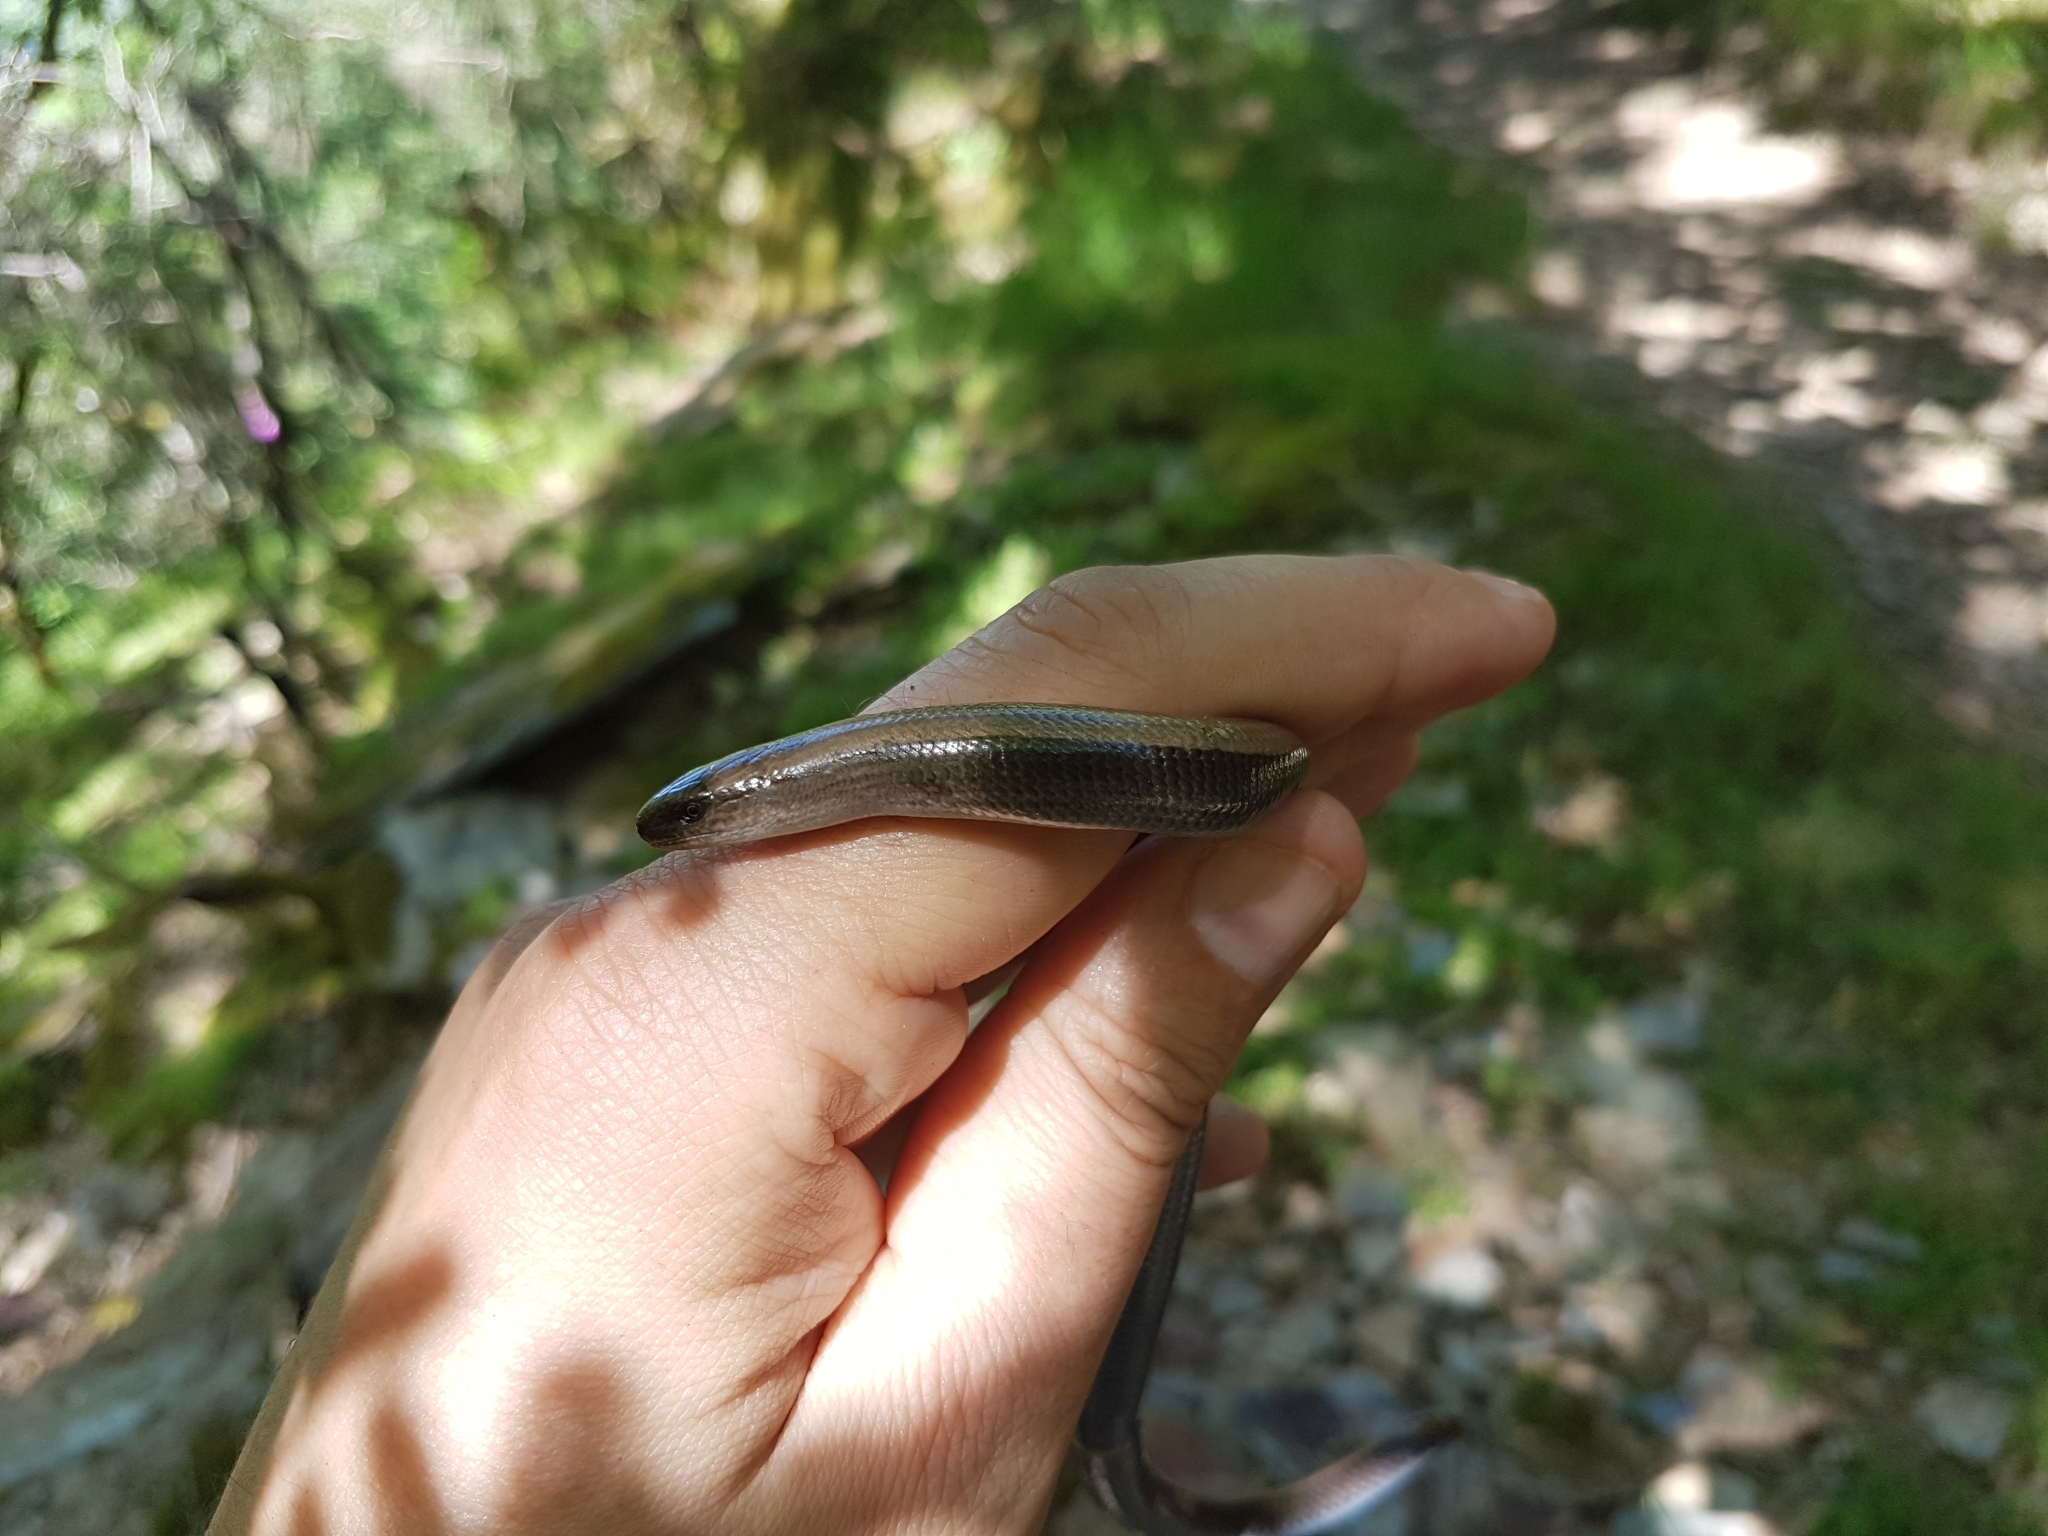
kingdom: Animalia
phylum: Chordata
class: Squamata
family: Anguidae
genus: Anguis
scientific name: Anguis fragilis
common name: Slow worm
